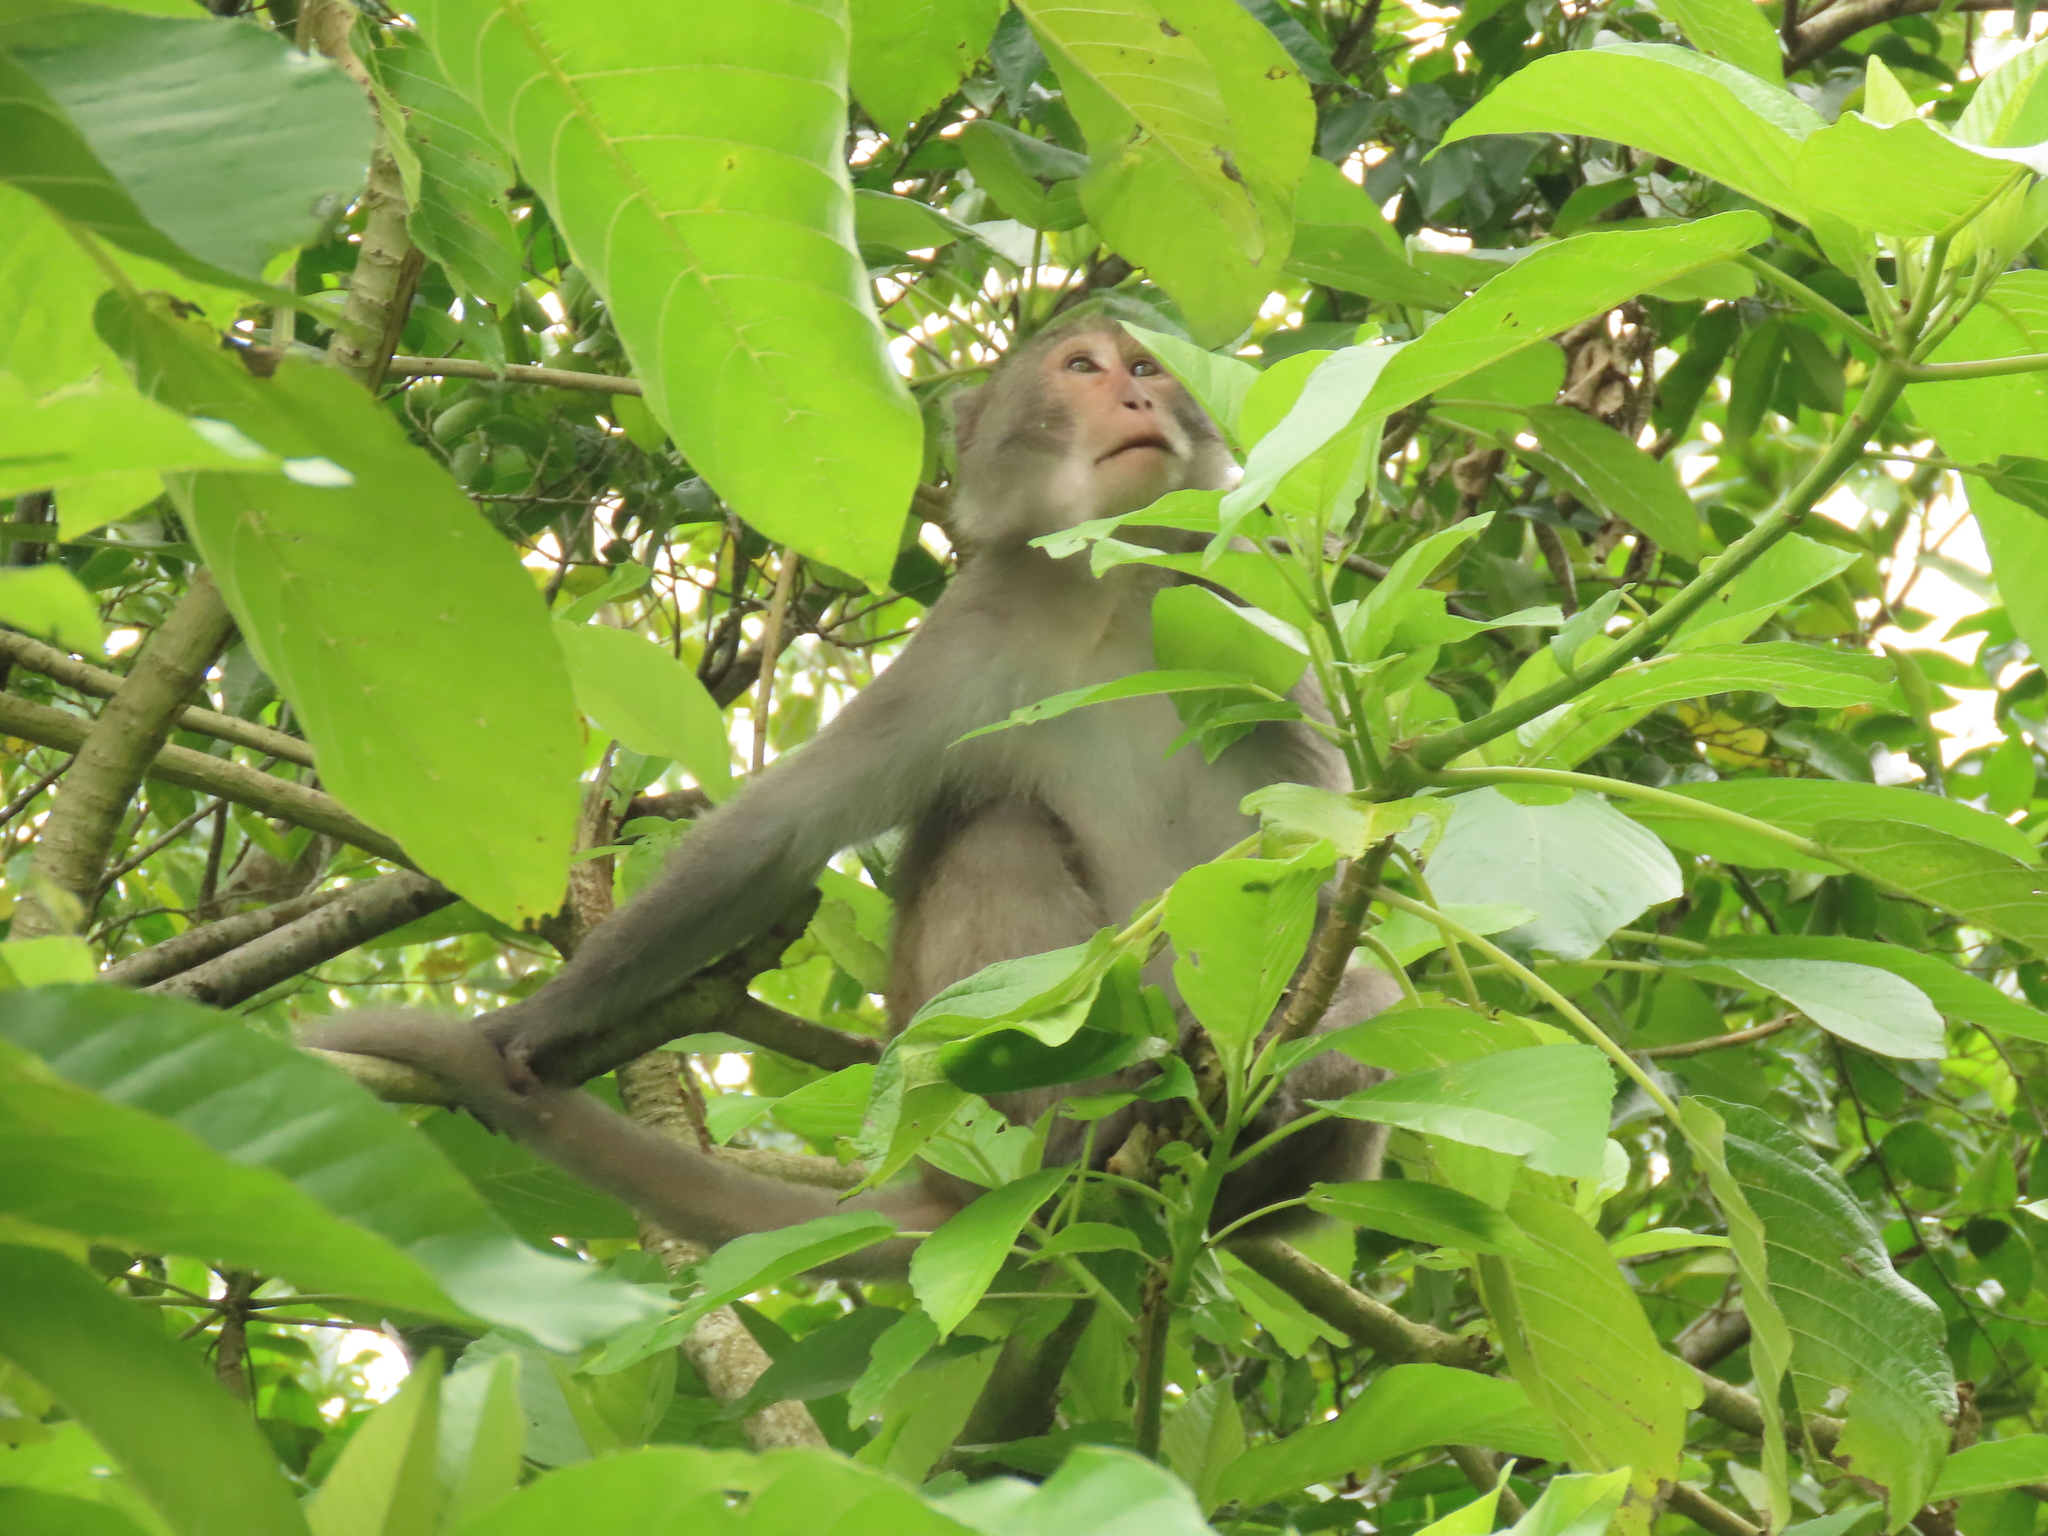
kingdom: Animalia
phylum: Chordata
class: Mammalia
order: Primates
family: Cercopithecidae
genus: Macaca
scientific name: Macaca cyclopis
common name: Formosan rock macaque
